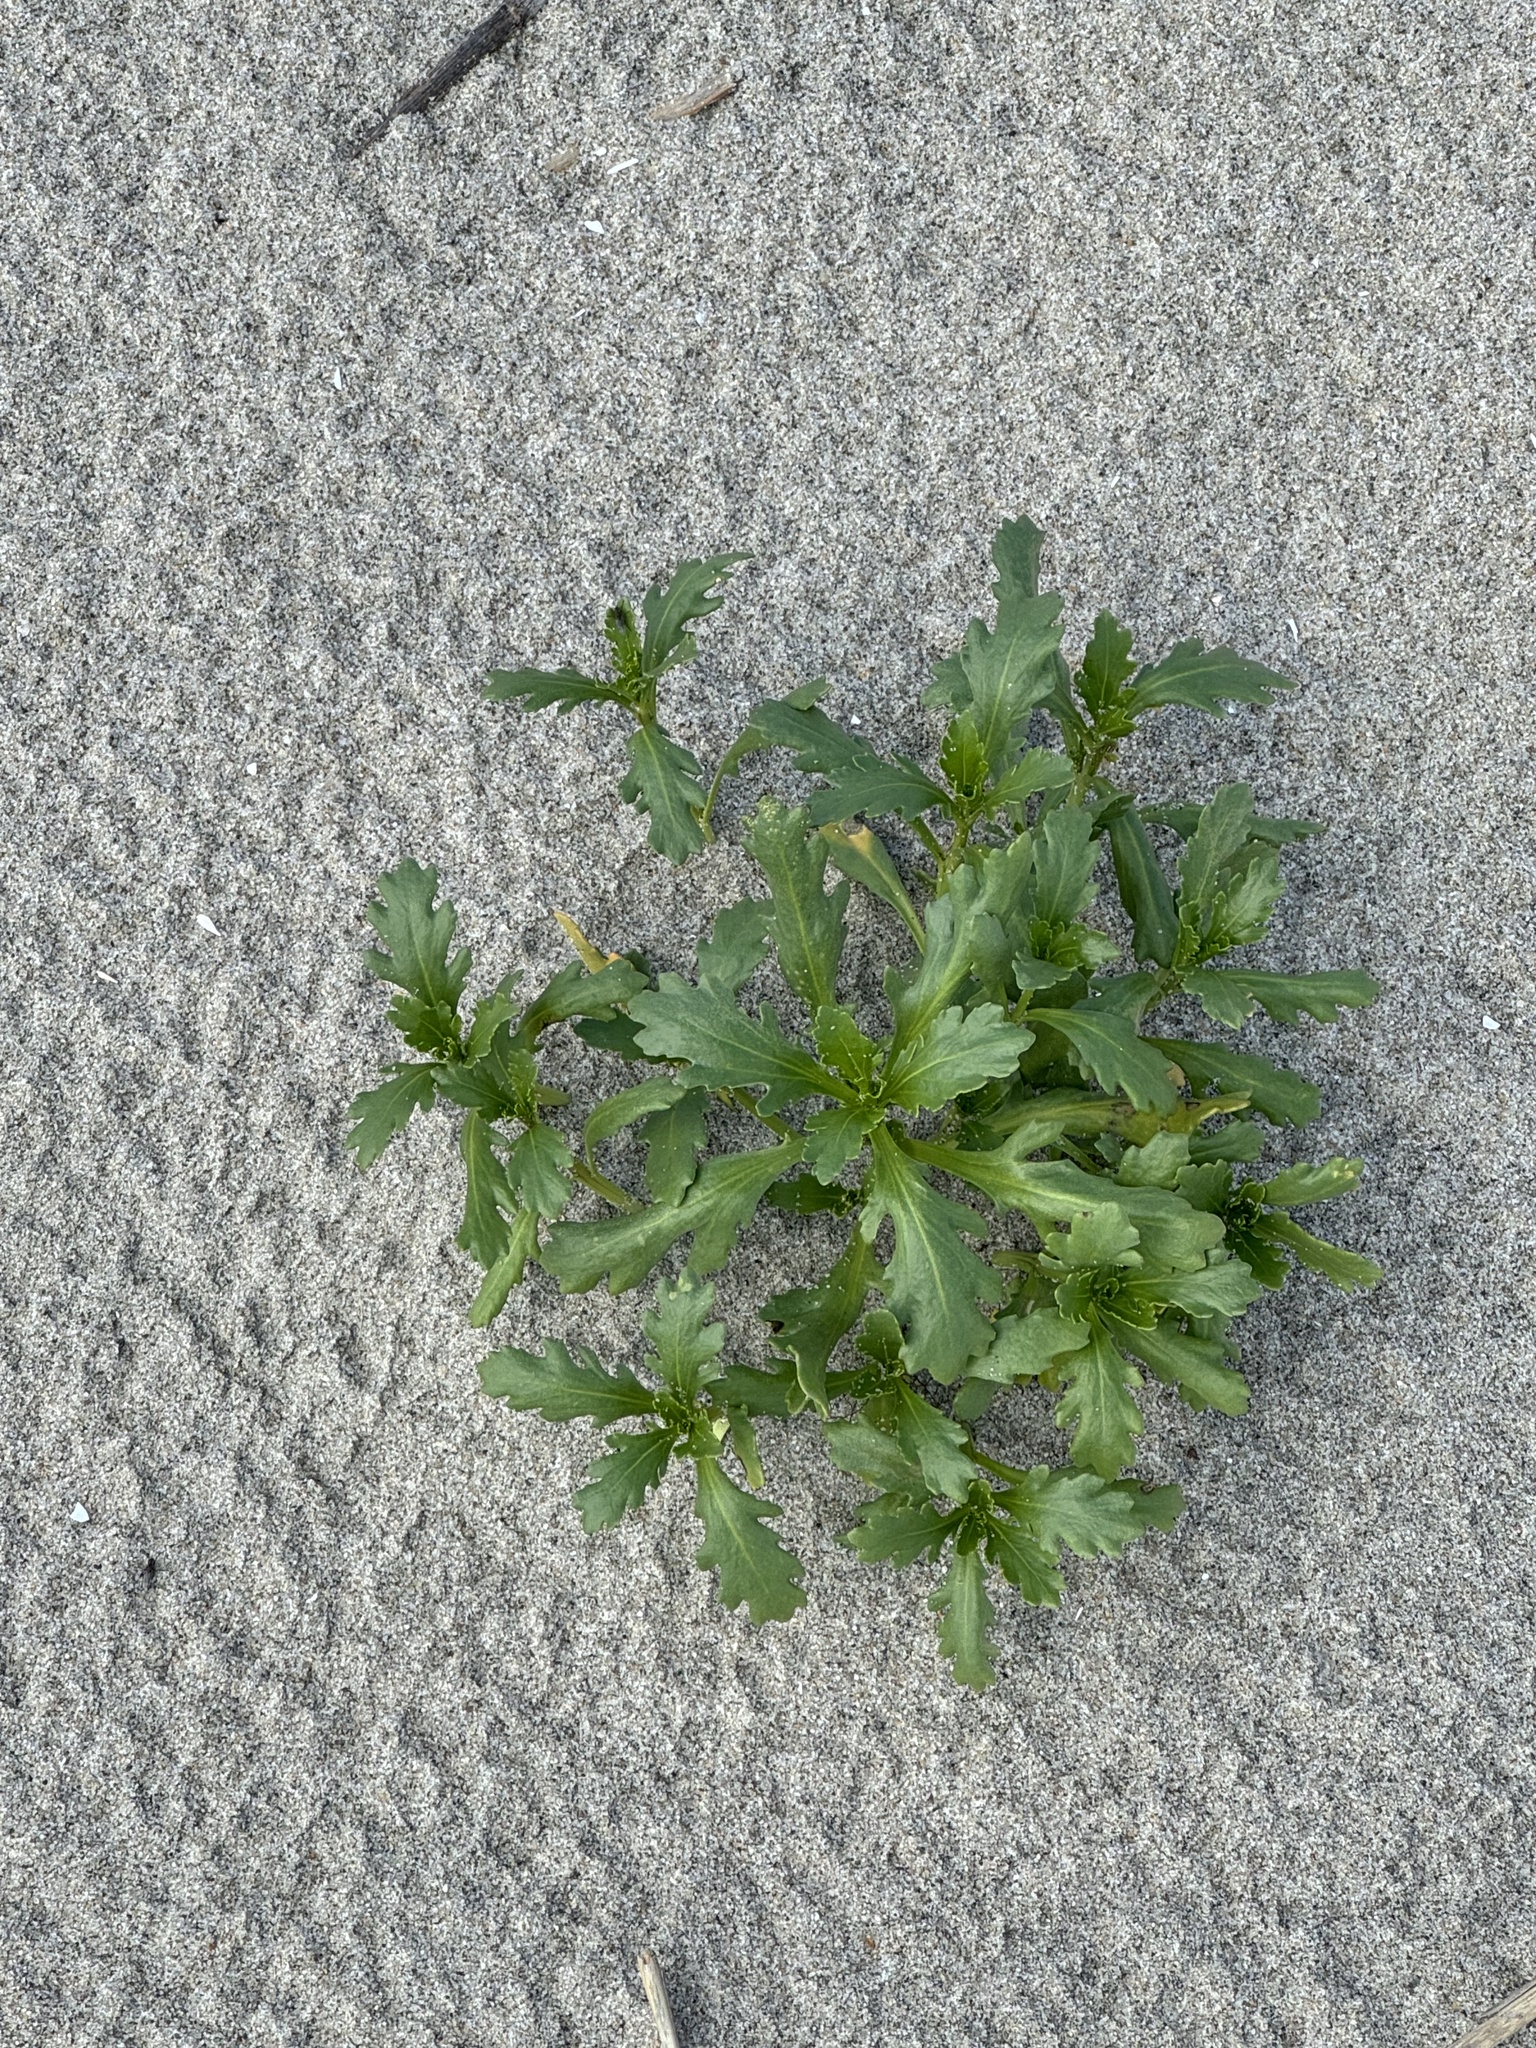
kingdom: Plantae
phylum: Tracheophyta
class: Magnoliopsida
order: Brassicales
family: Brassicaceae
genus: Cakile
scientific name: Cakile edentula
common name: American sea rocket
